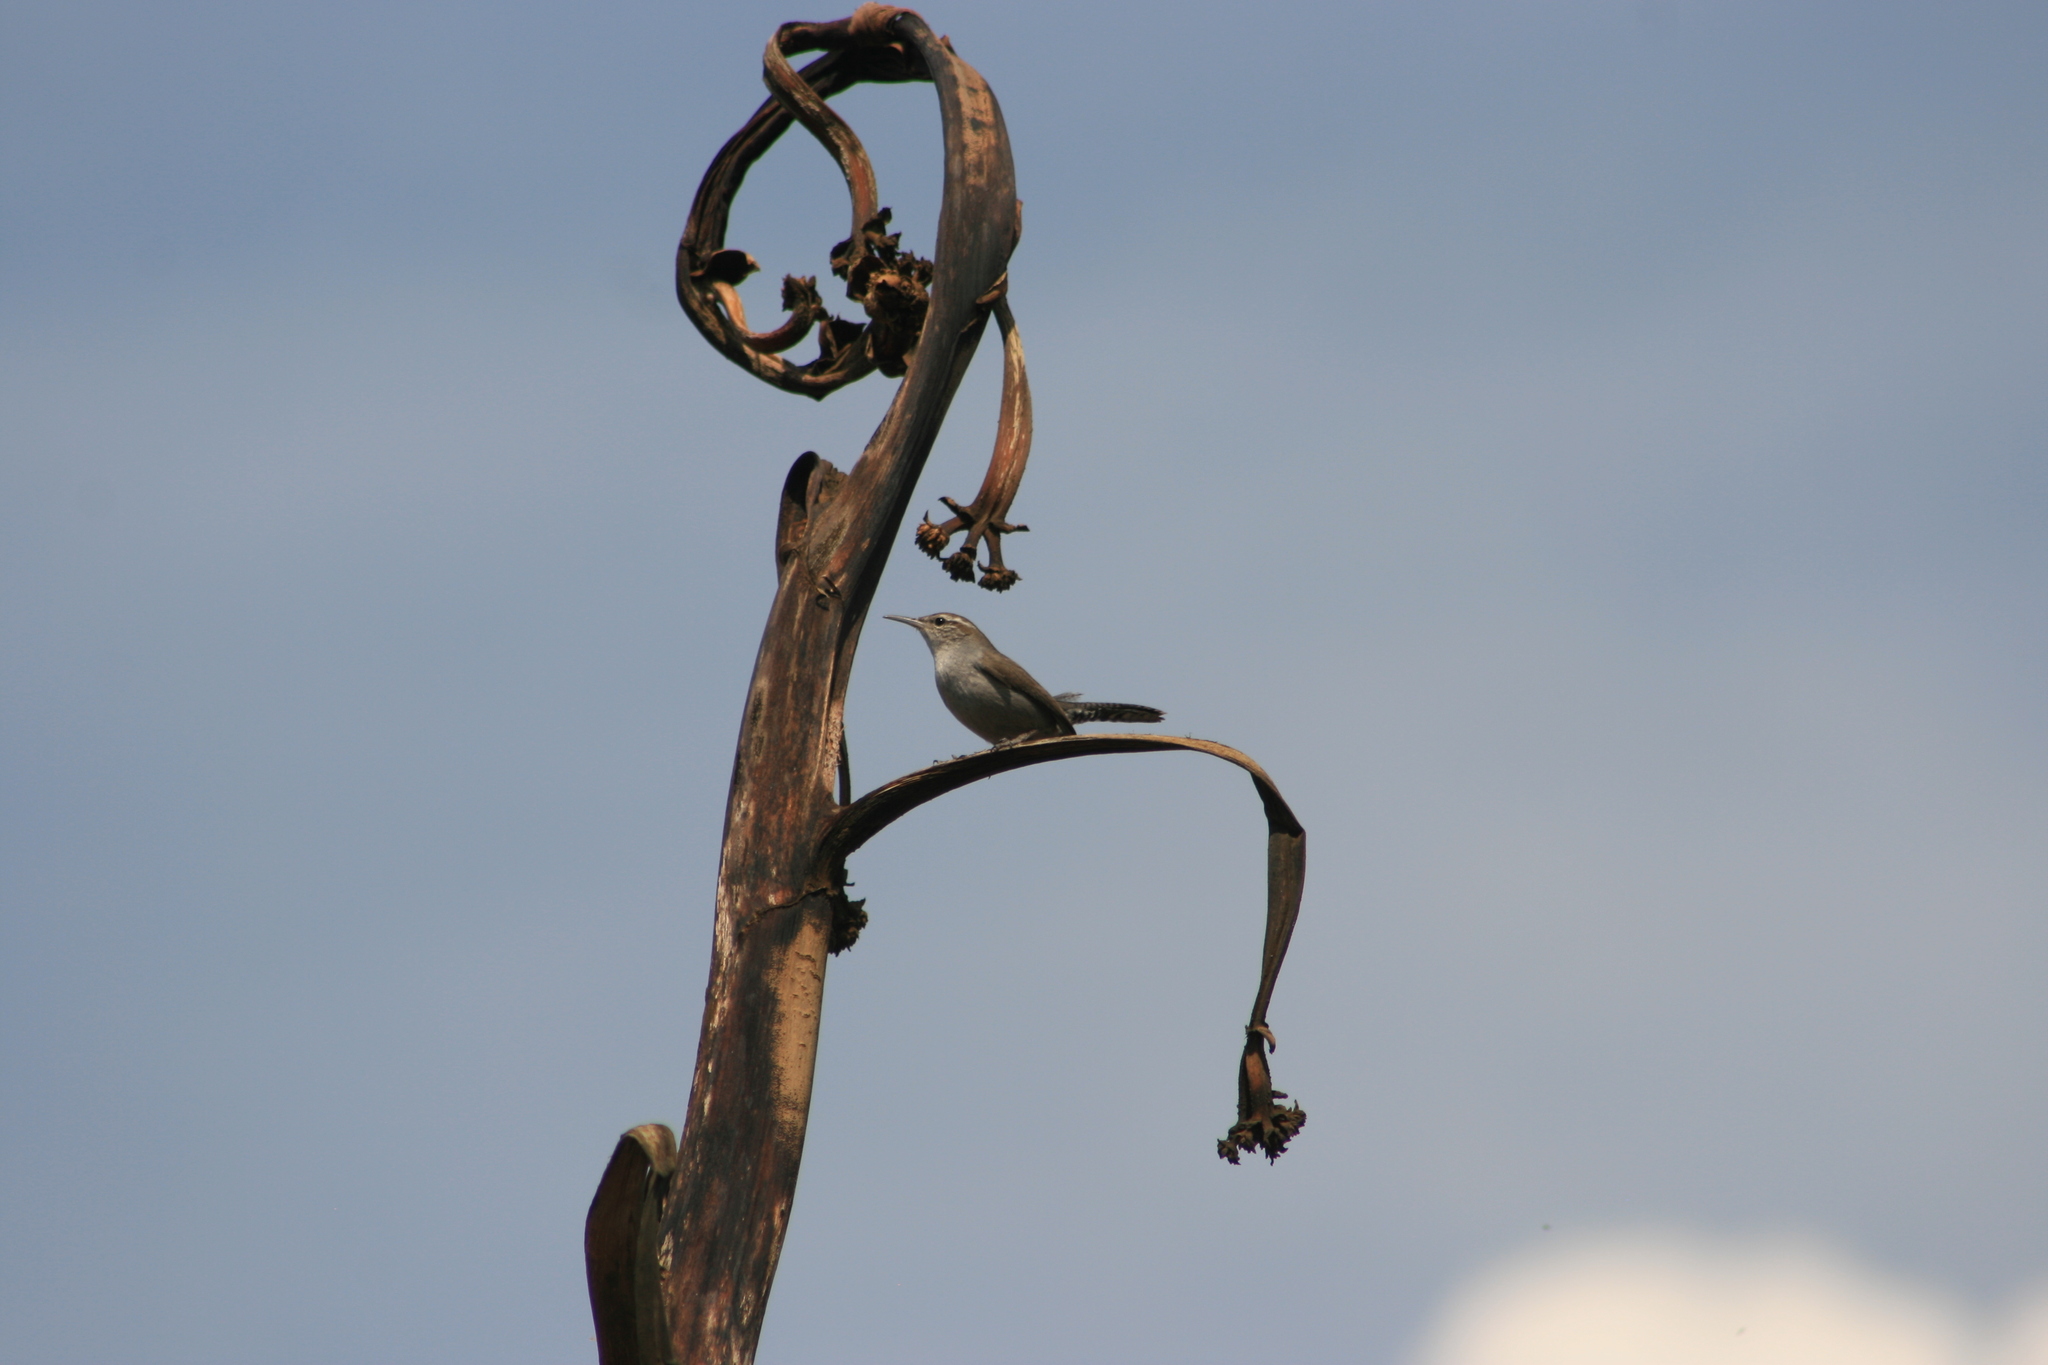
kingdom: Animalia
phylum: Chordata
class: Aves
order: Passeriformes
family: Troglodytidae
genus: Thryomanes
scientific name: Thryomanes bewickii
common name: Bewick's wren
